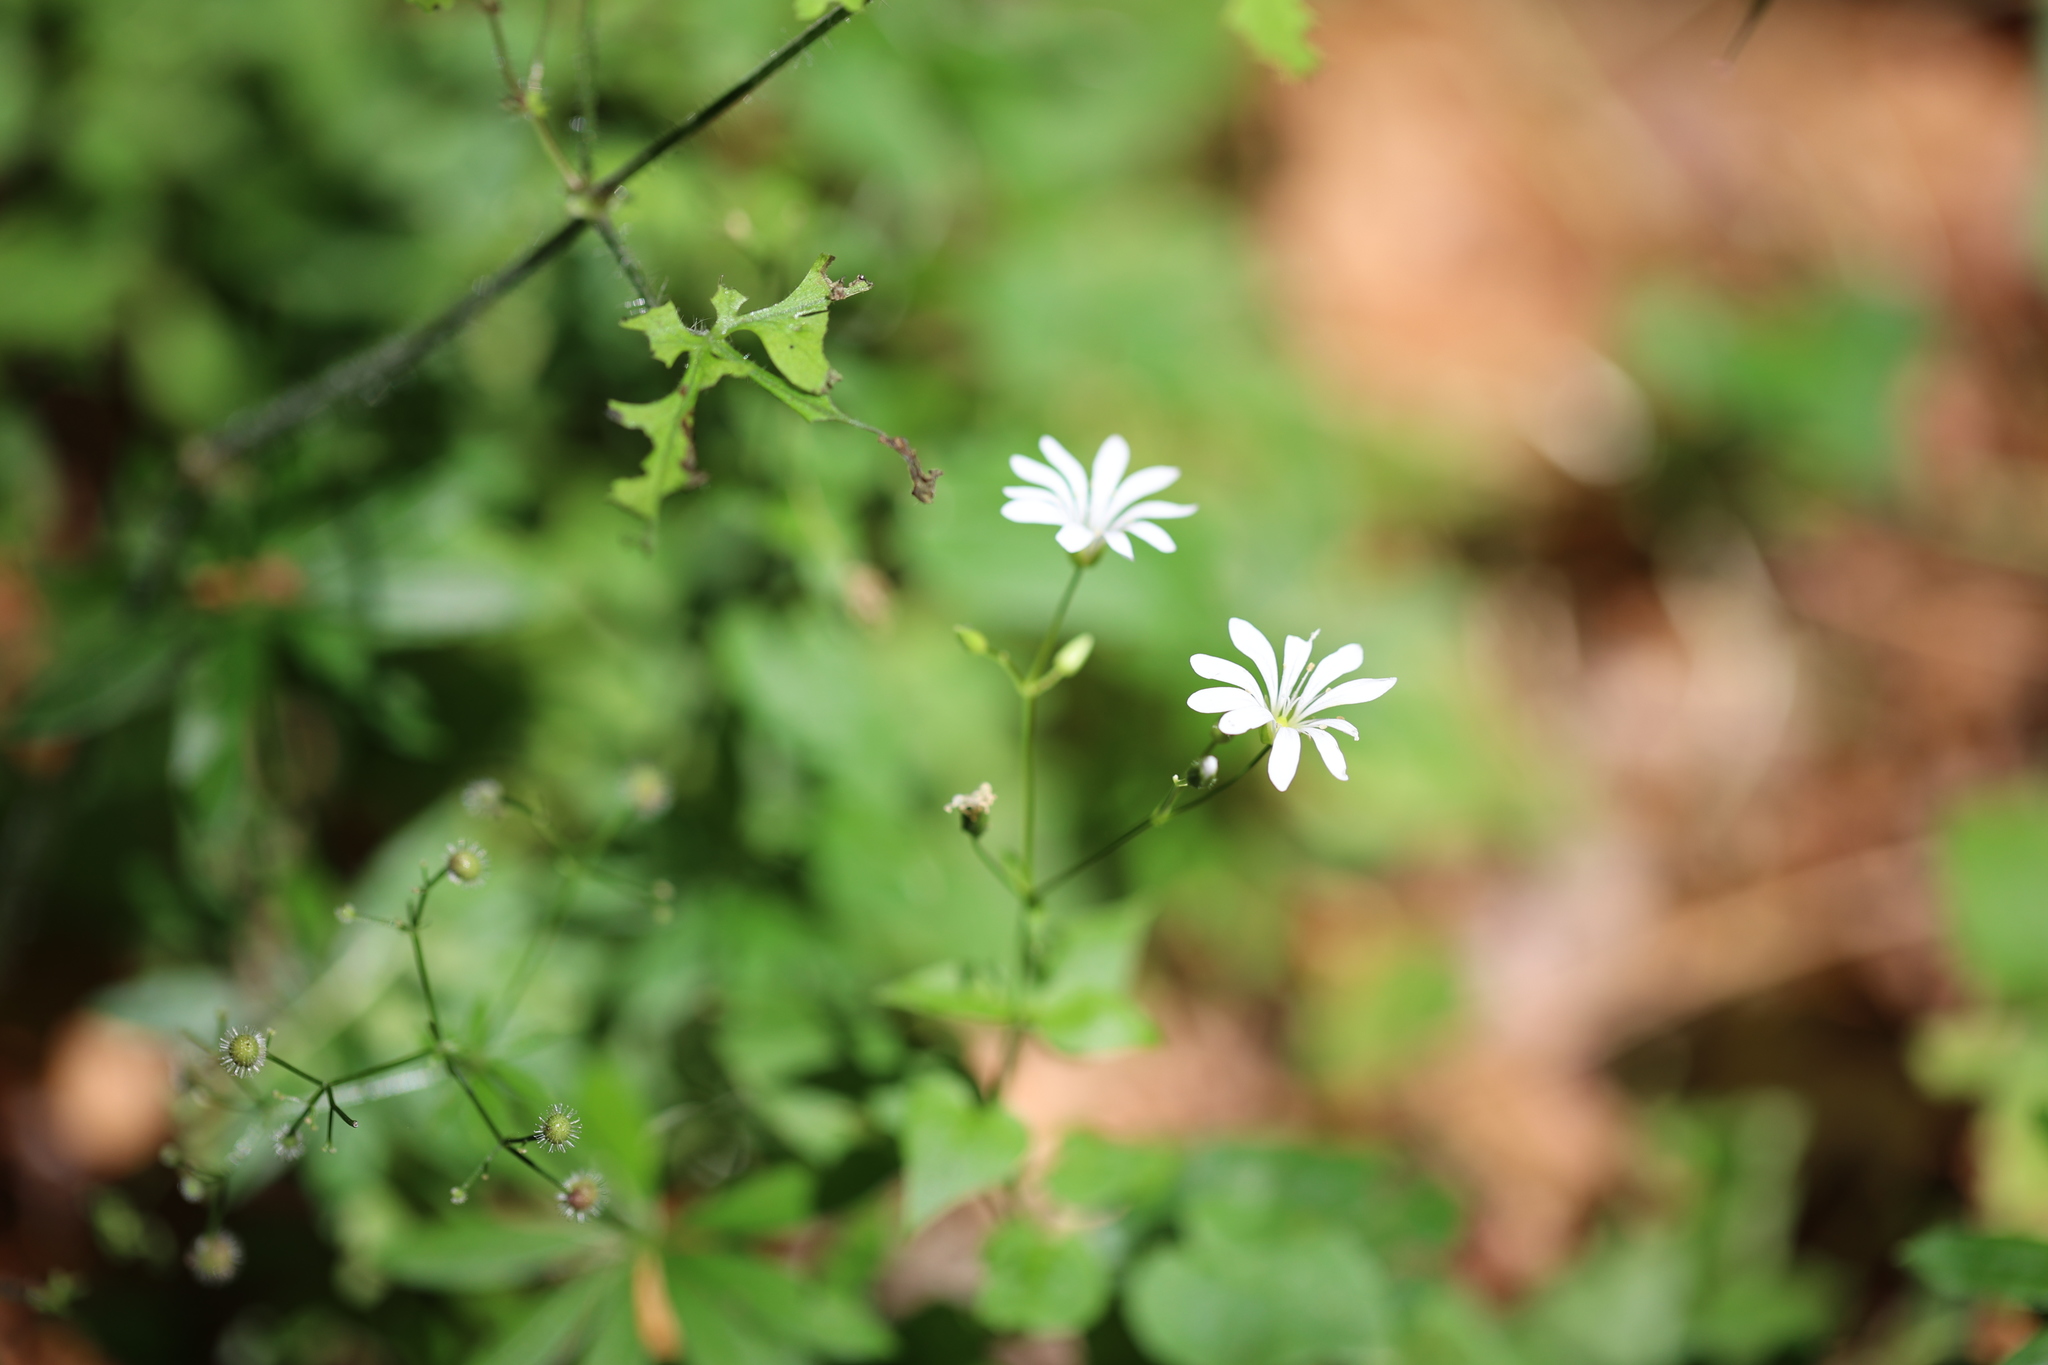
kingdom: Plantae
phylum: Tracheophyta
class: Magnoliopsida
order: Caryophyllales
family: Caryophyllaceae
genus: Stellaria
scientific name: Stellaria glochidisperma
